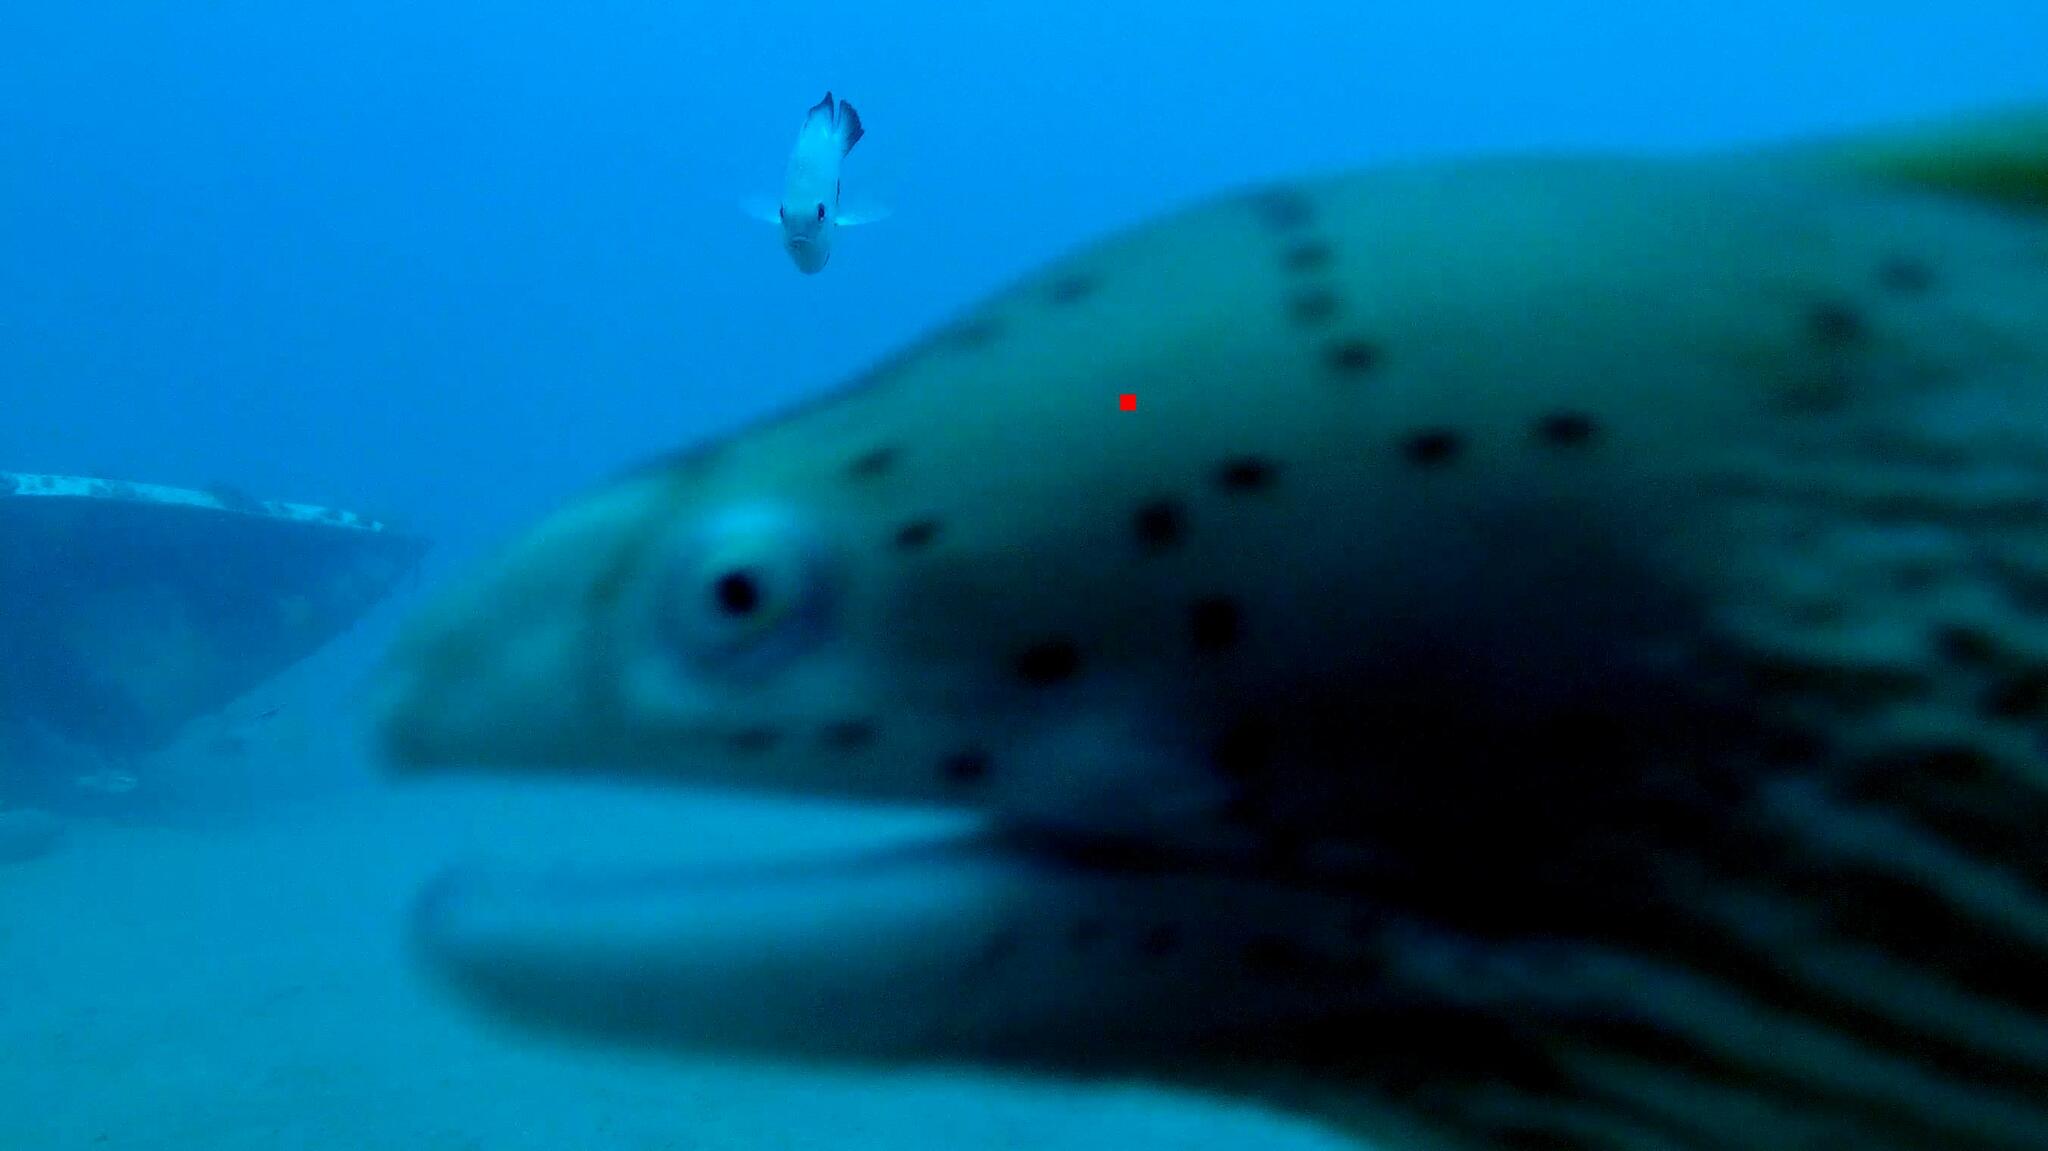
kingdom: Animalia
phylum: Chordata
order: Anguilliformes
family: Muraenidae
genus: Gymnothorax
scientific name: Gymnothorax griseus
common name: Geometric moray
